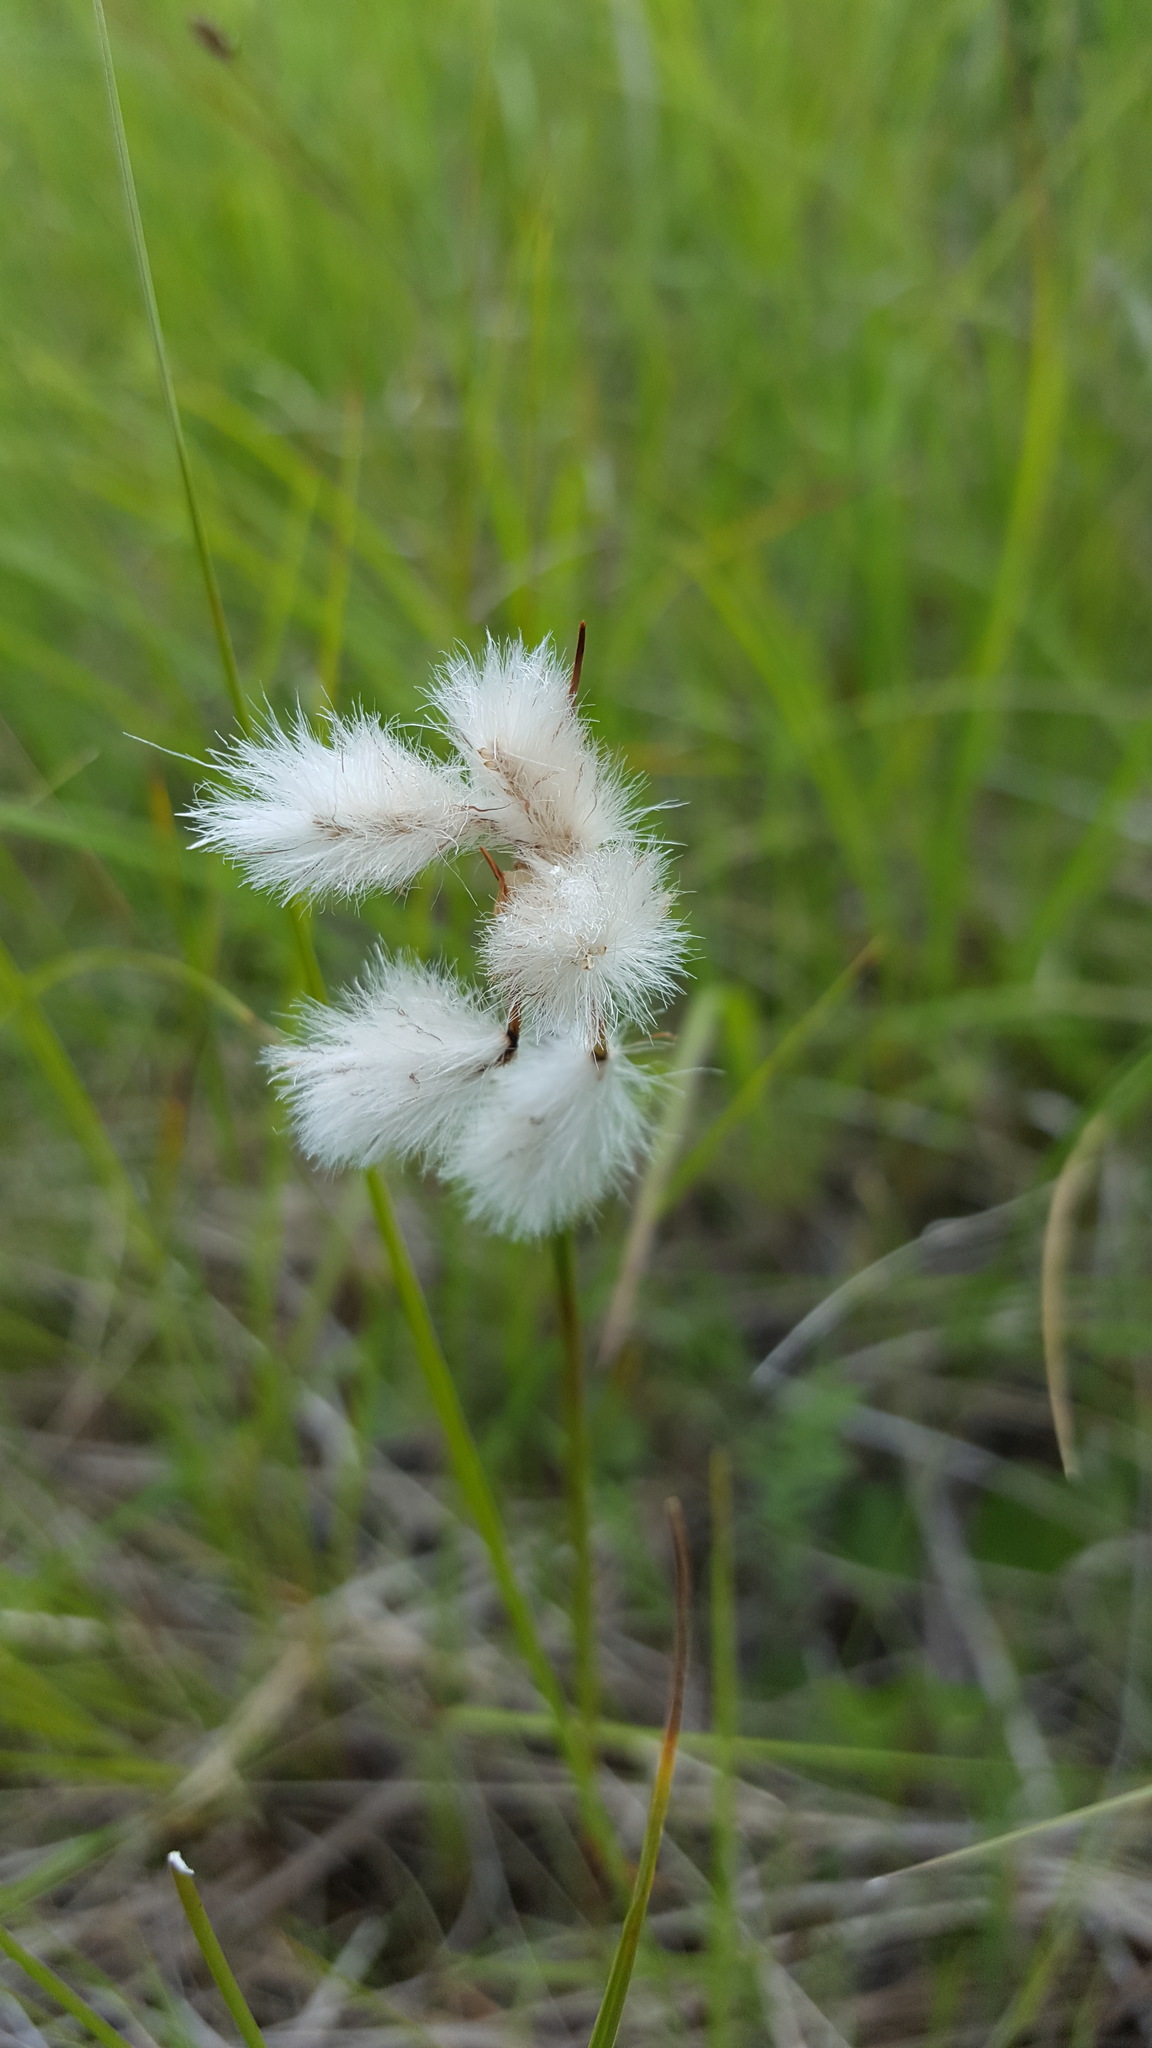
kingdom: Plantae
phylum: Tracheophyta
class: Liliopsida
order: Poales
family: Cyperaceae
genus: Eriophorum
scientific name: Eriophorum angustifolium
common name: Common cottongrass
